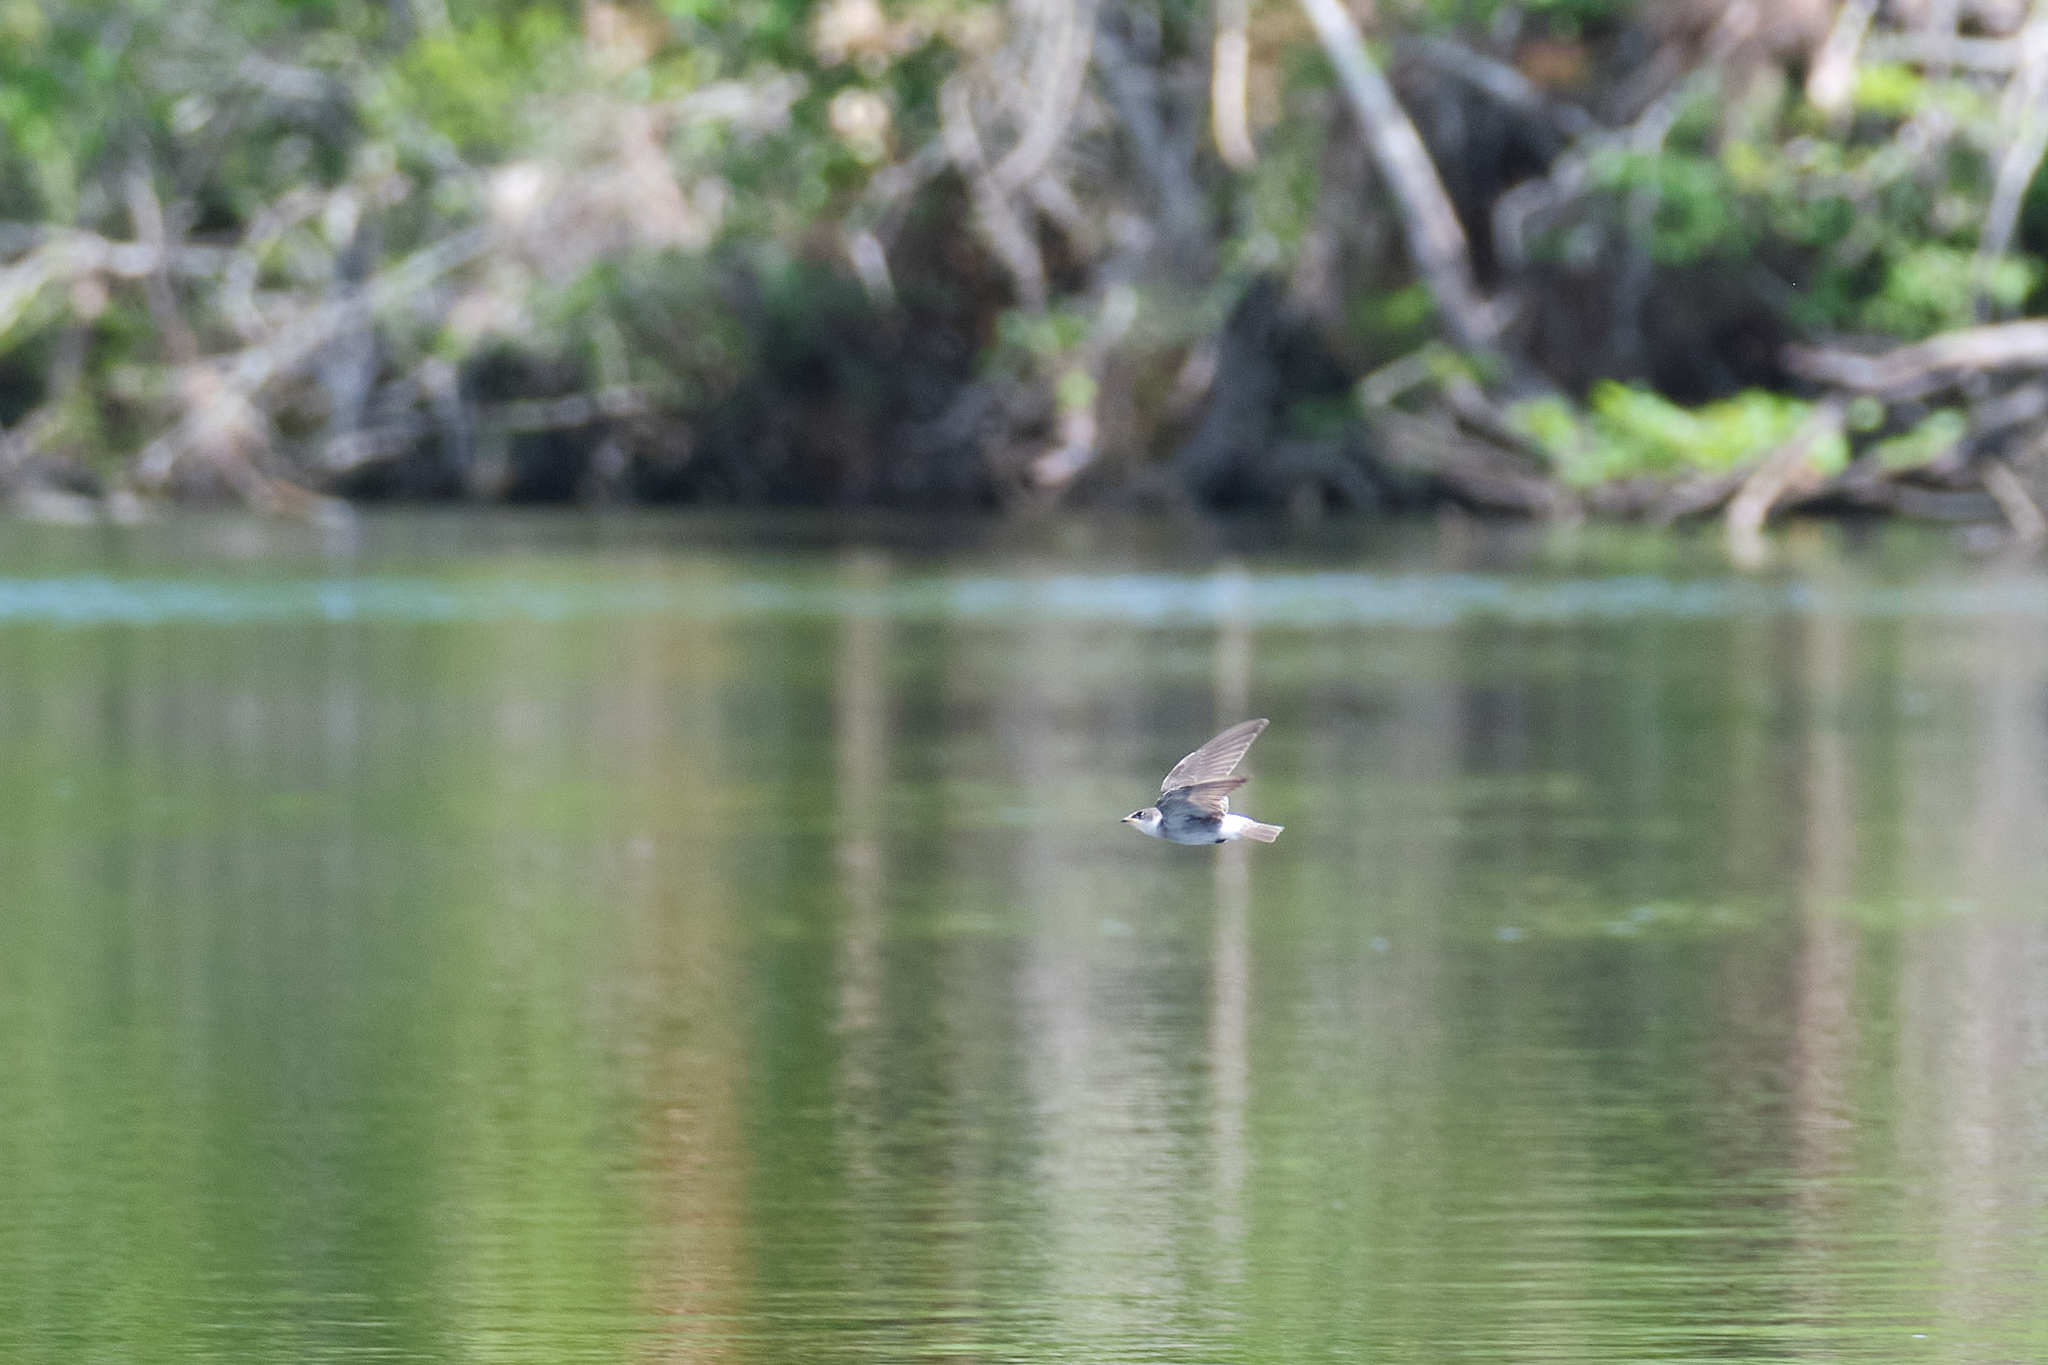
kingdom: Animalia
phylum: Chordata
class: Aves
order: Passeriformes
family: Hirundinidae
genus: Tachycineta
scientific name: Tachycineta albilinea
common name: Mangrove swallow
